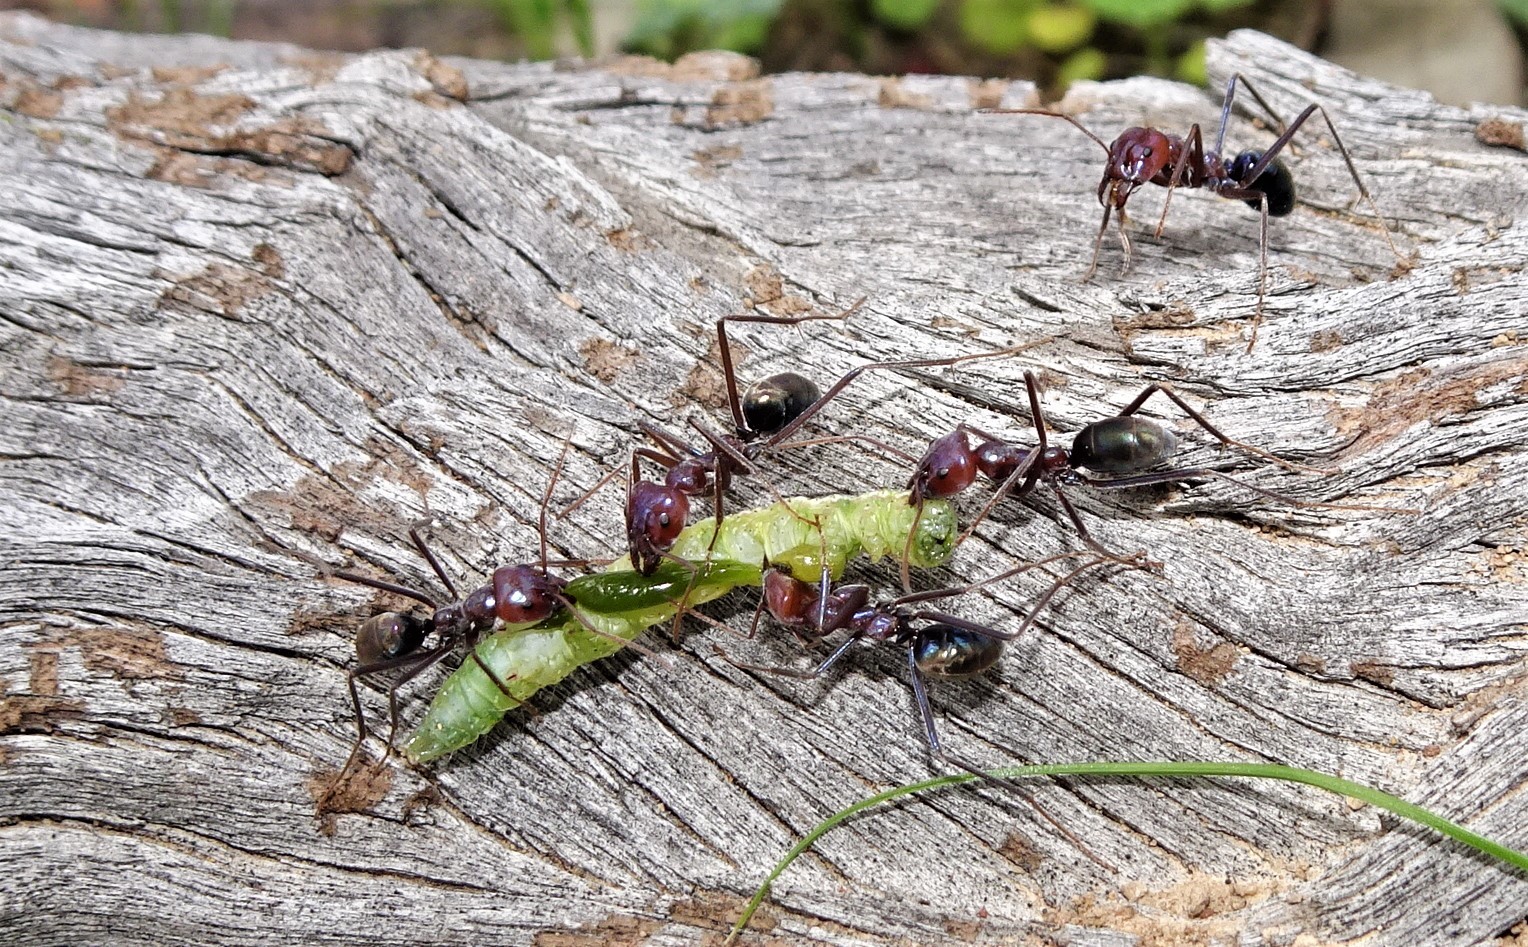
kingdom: Animalia
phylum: Arthropoda
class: Insecta
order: Hymenoptera
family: Formicidae
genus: Iridomyrmex
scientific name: Iridomyrmex purpureus
